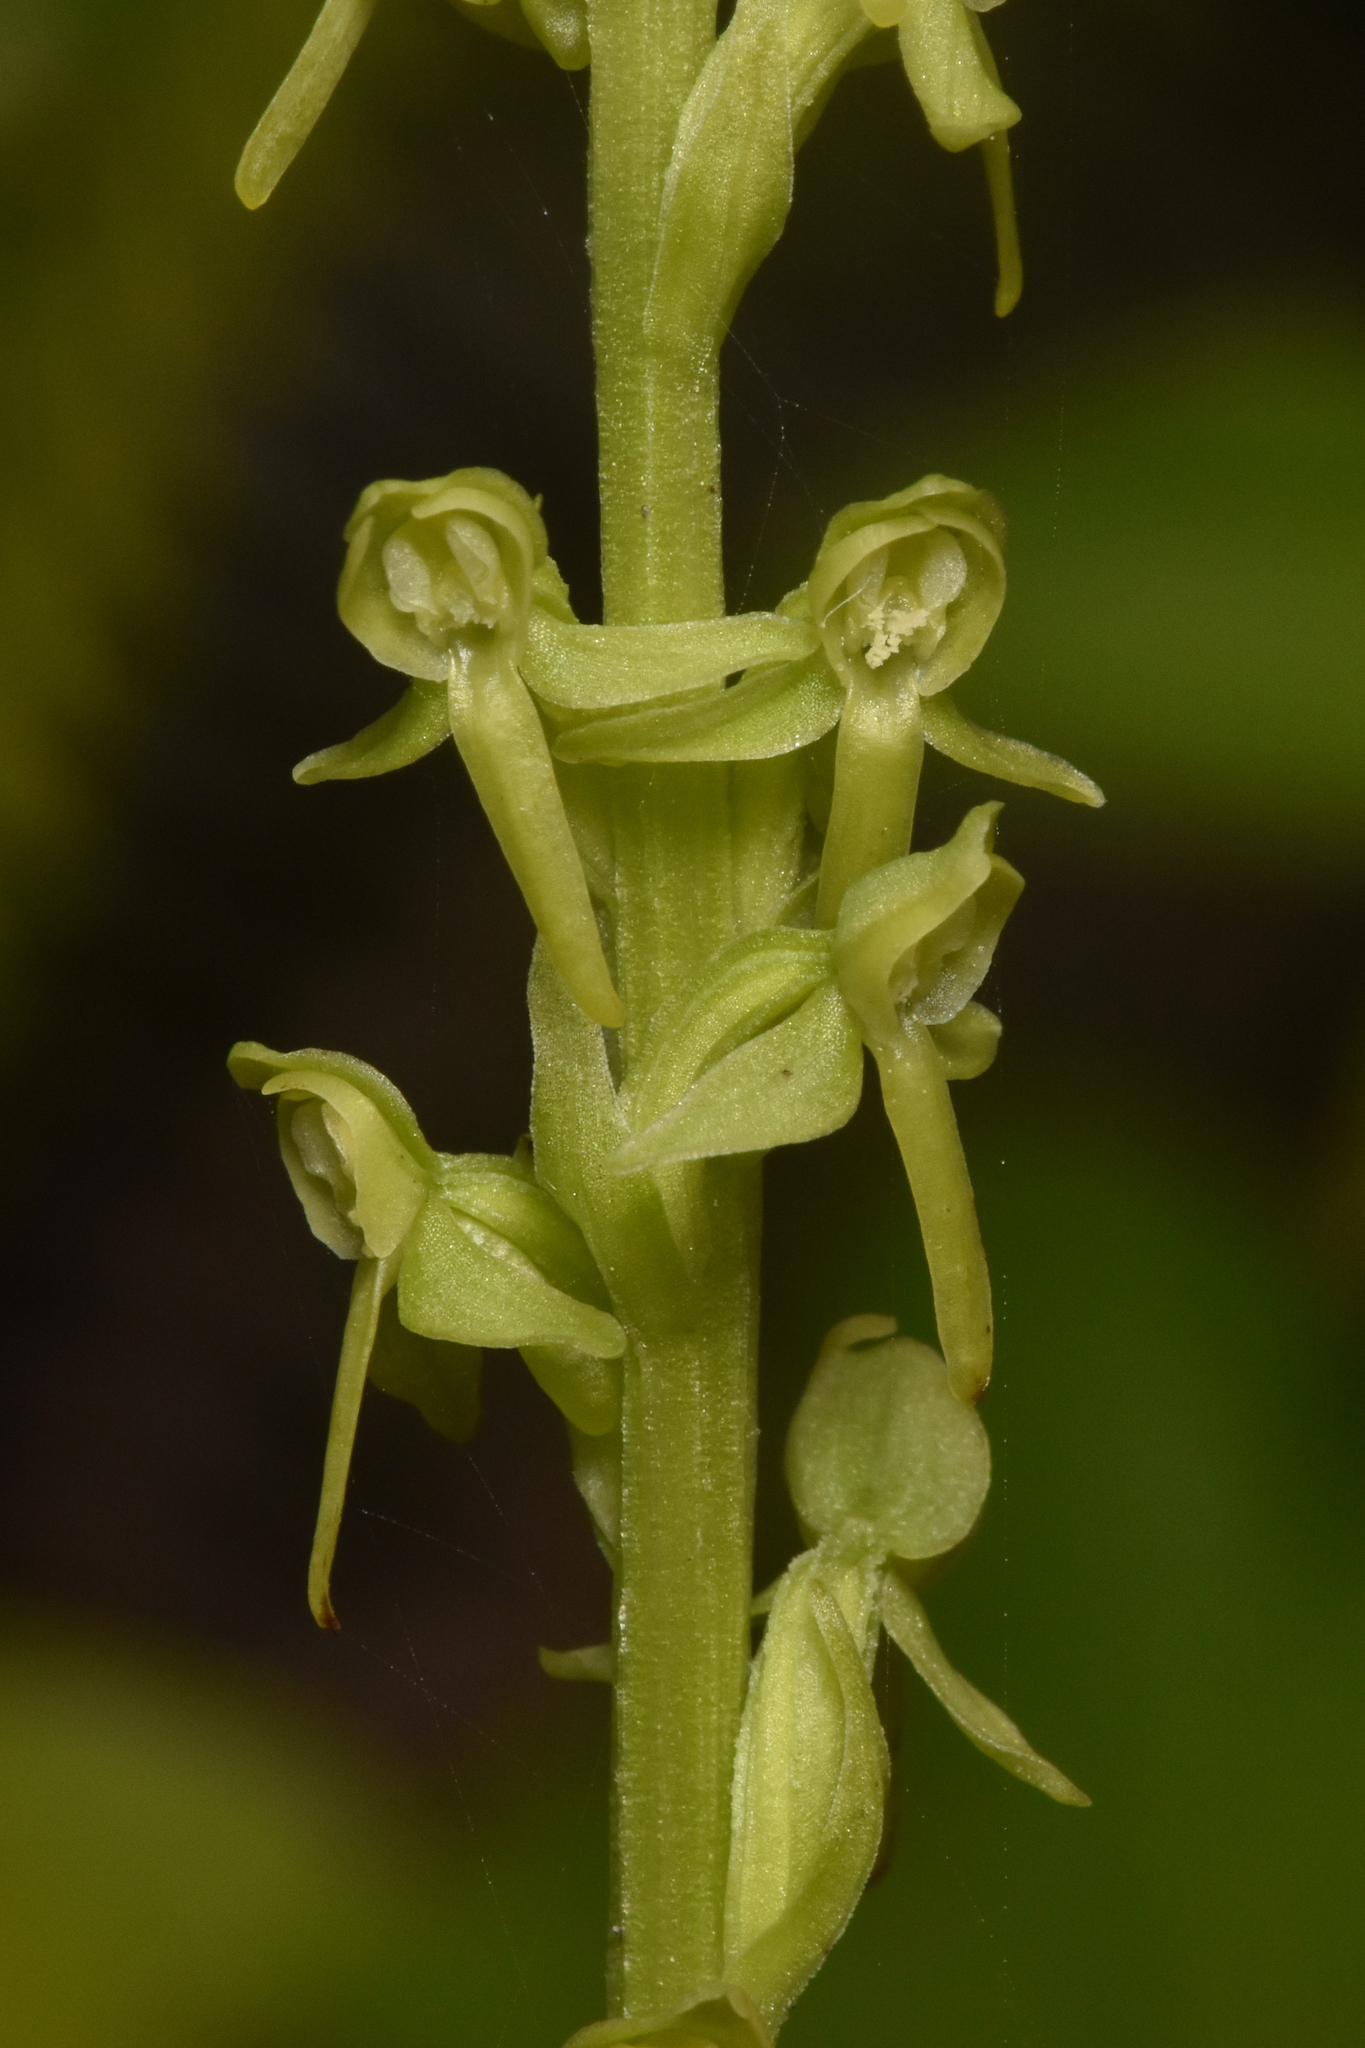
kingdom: Plantae
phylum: Tracheophyta
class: Liliopsida
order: Asparagales
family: Orchidaceae
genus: Platanthera
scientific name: Platanthera stricta
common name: Slender bog orchid
